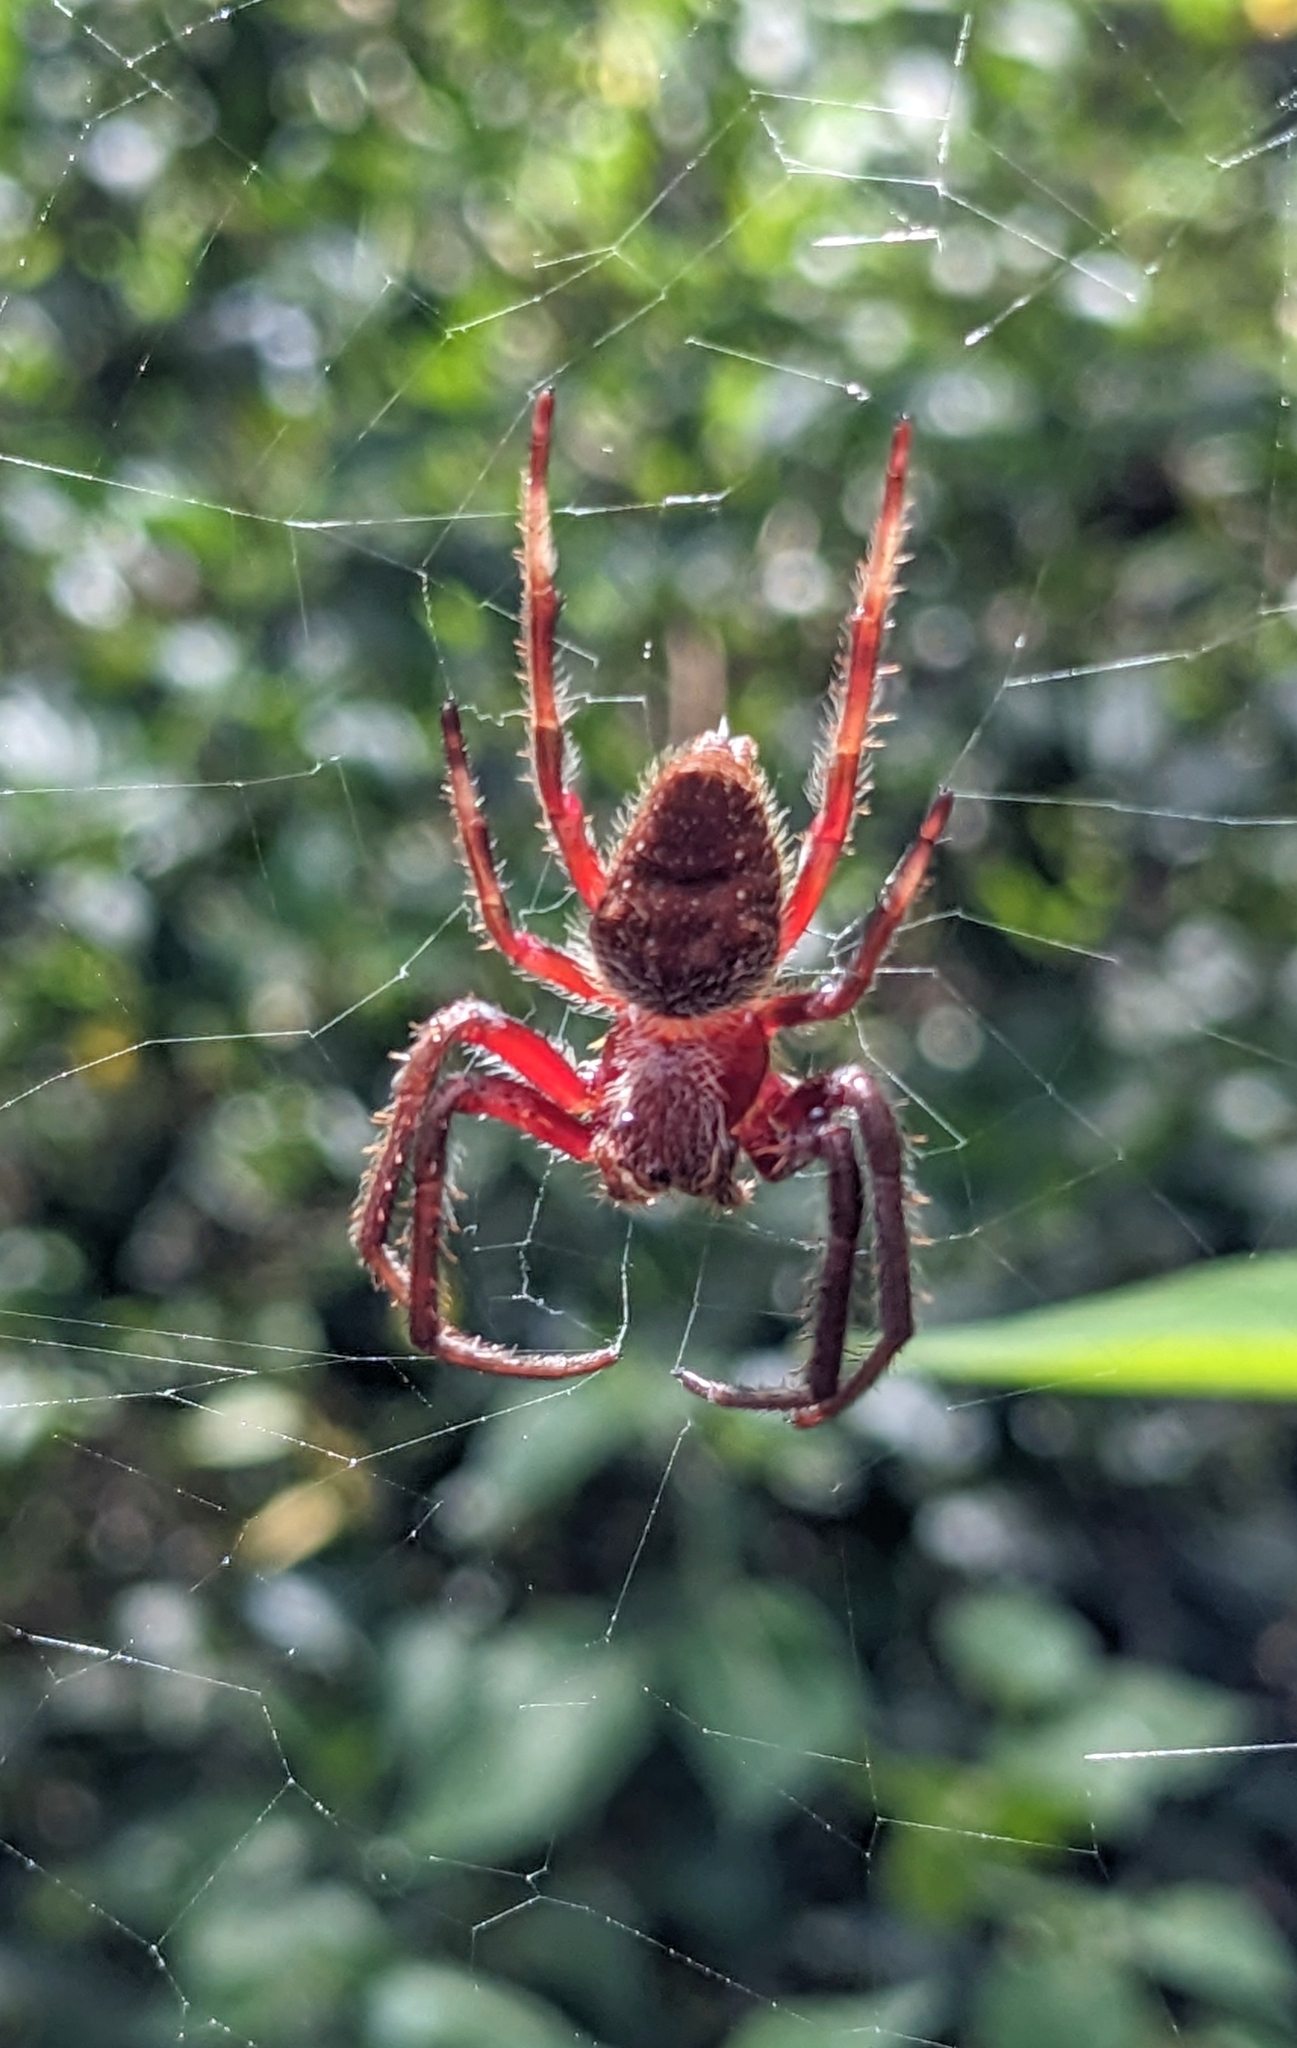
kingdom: Animalia
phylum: Arthropoda
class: Arachnida
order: Araneae
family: Araneidae
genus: Hortophora
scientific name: Hortophora
